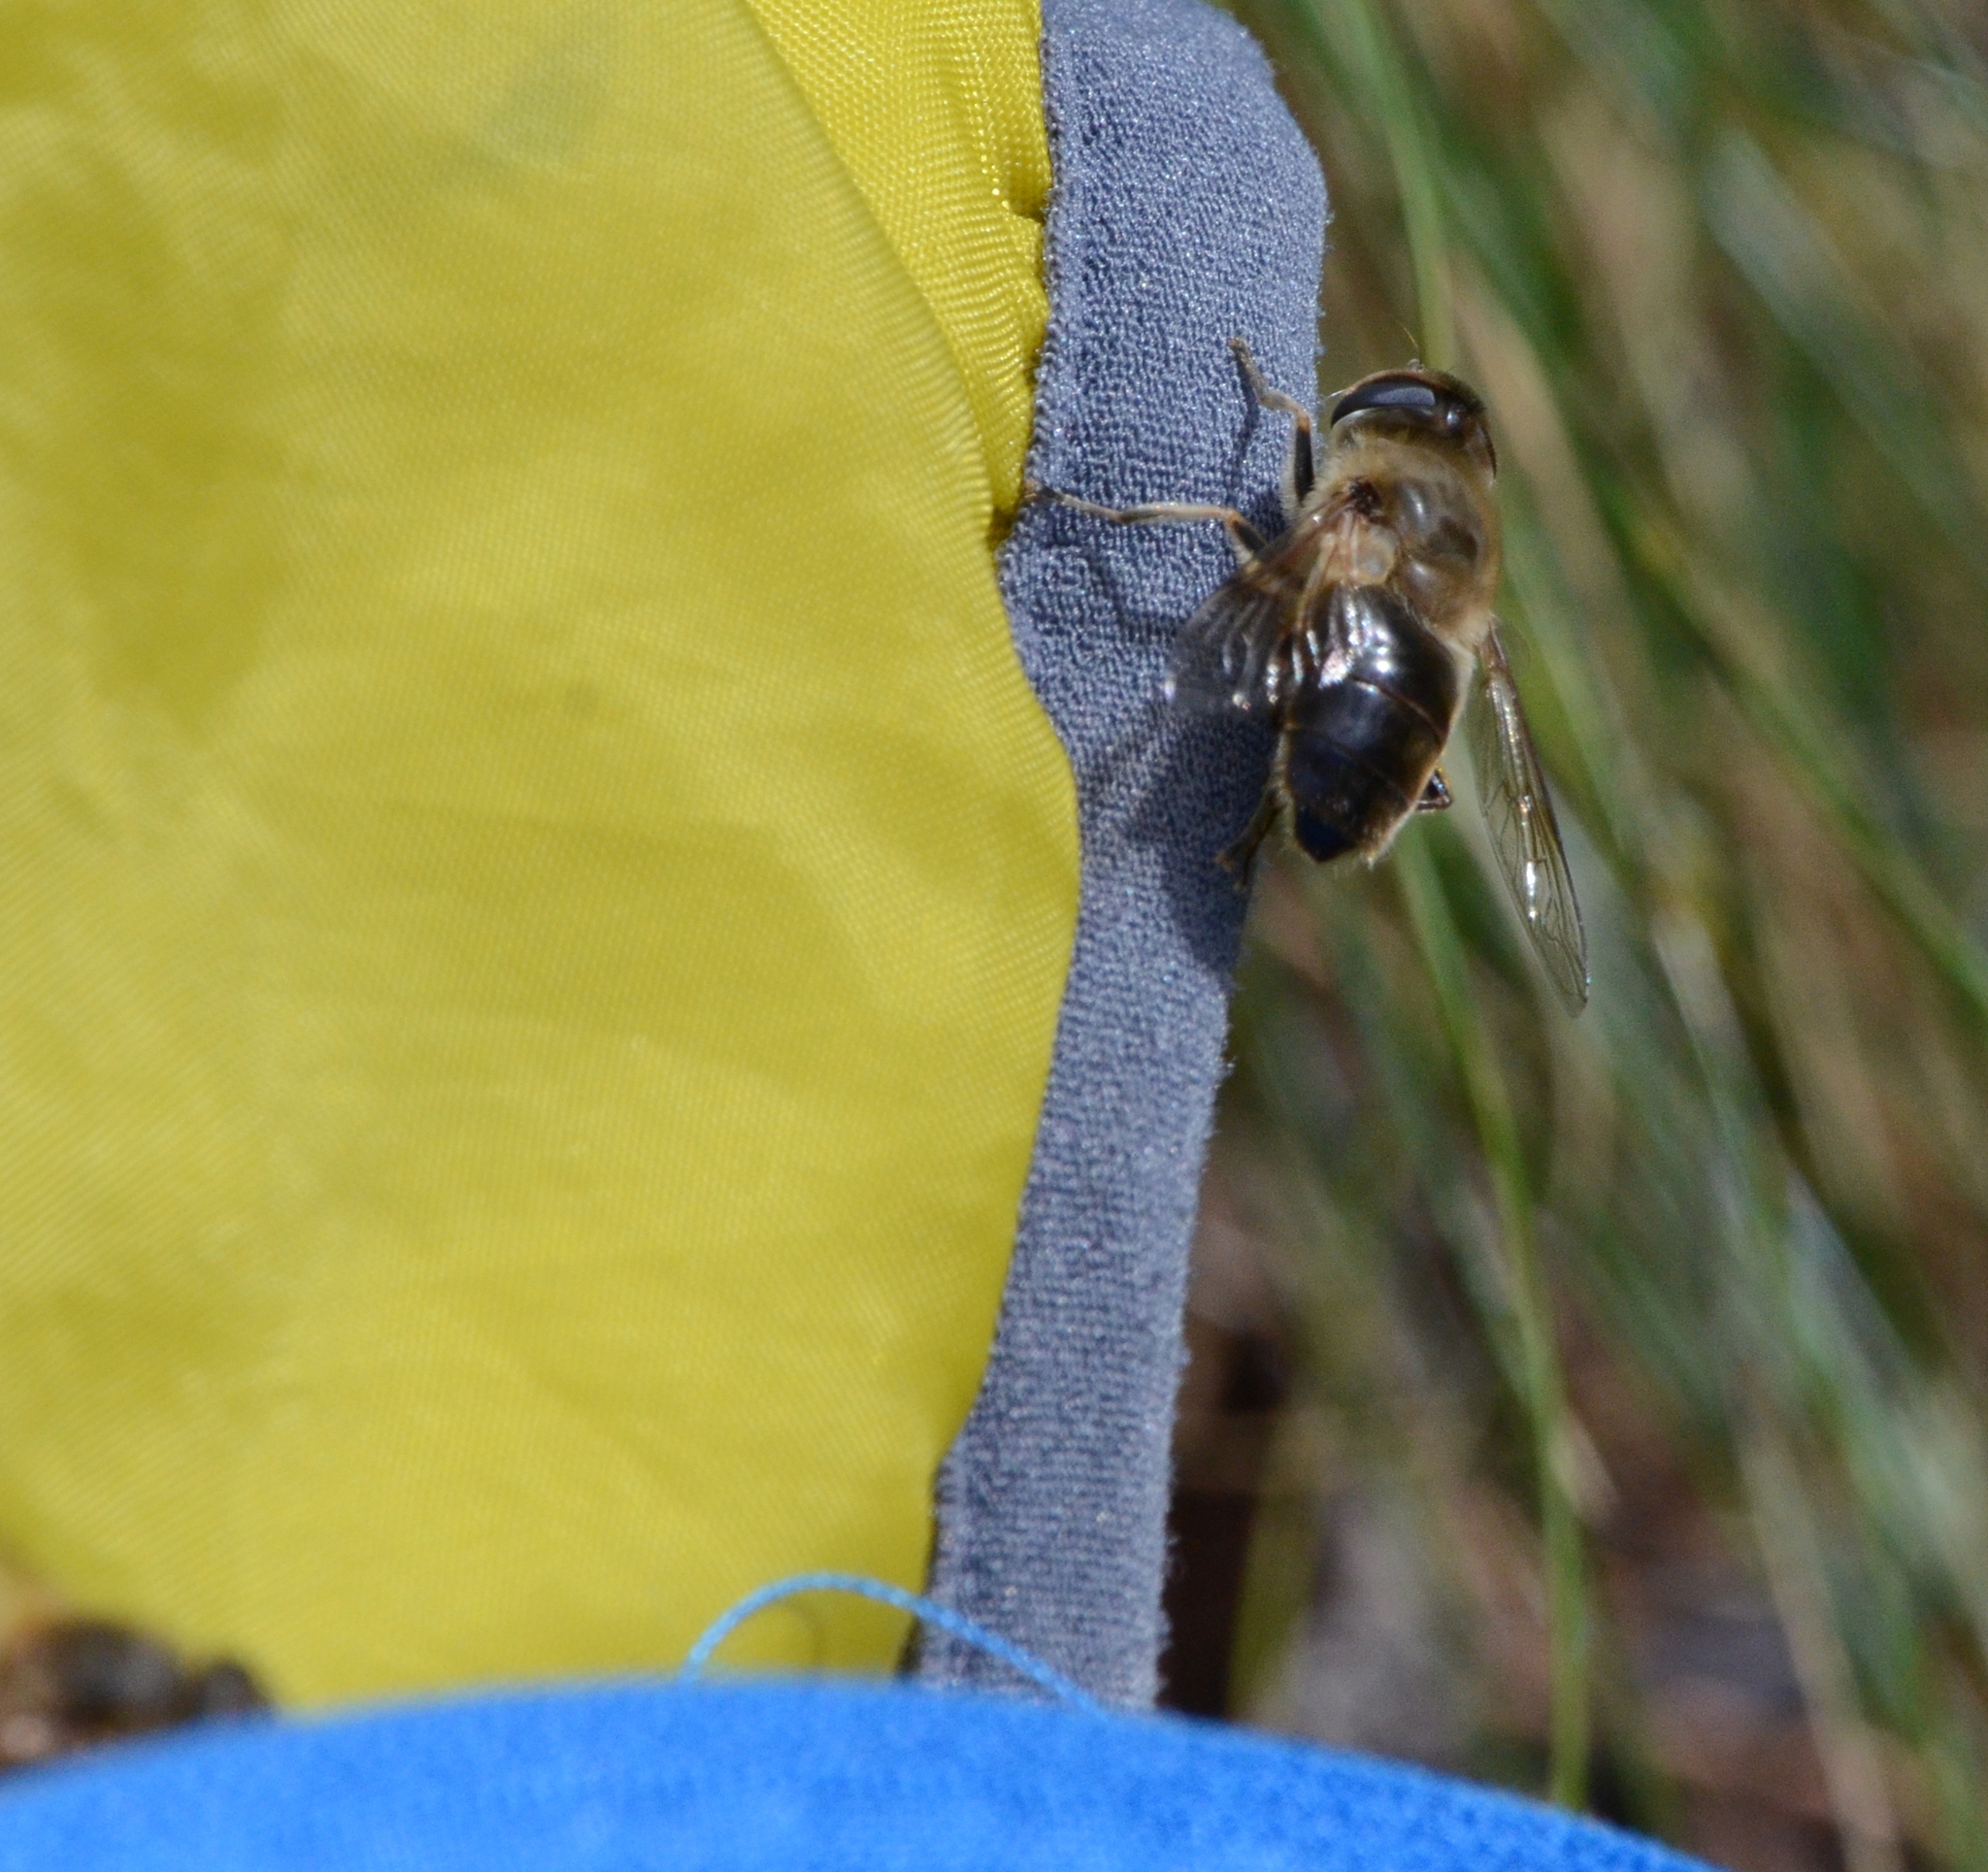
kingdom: Animalia
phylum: Arthropoda
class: Insecta
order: Diptera
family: Syrphidae
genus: Eristalis
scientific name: Eristalis tenax
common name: Drone fly
